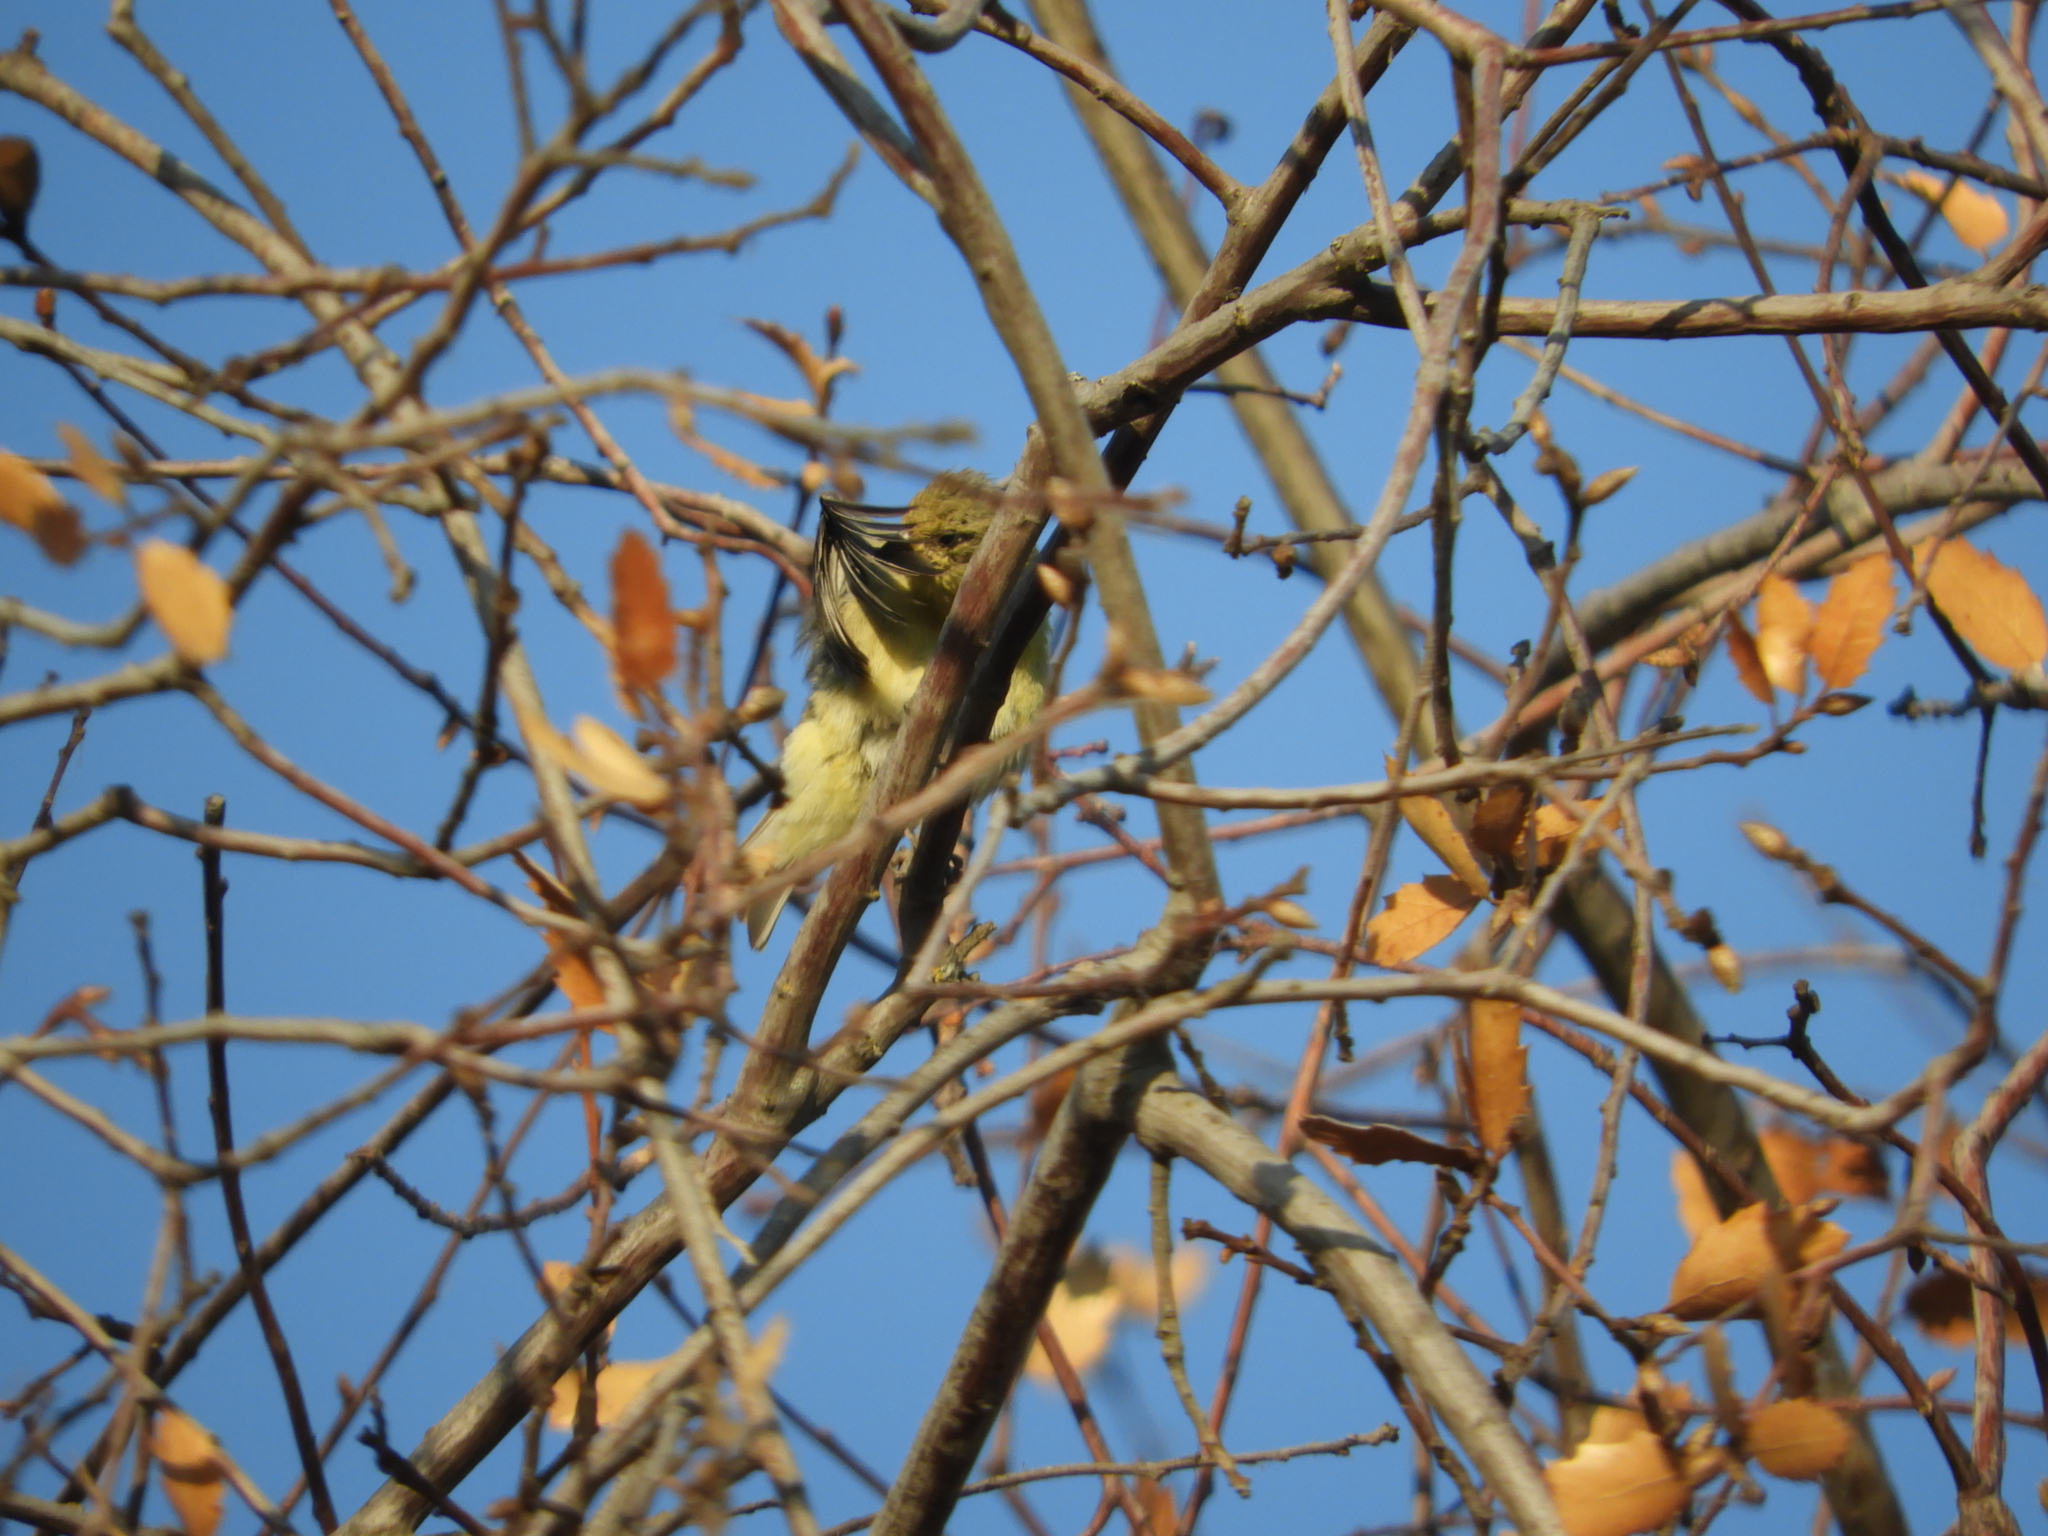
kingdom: Animalia
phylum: Chordata
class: Aves
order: Passeriformes
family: Fringillidae
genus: Spinus
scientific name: Spinus psaltria
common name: Lesser goldfinch
